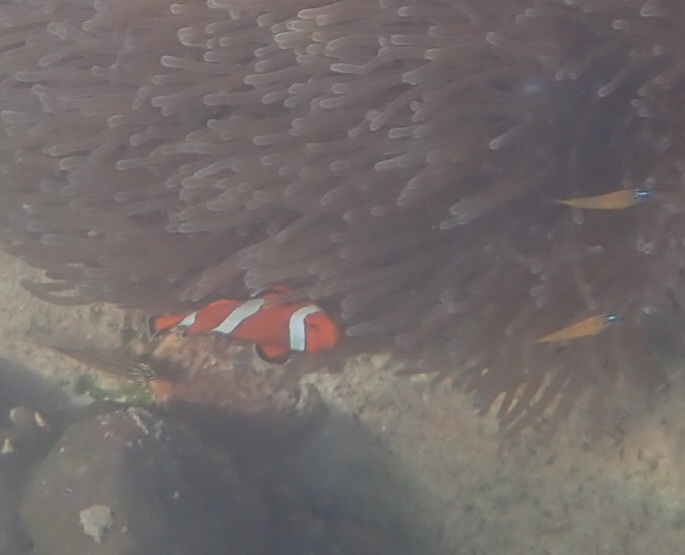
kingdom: Animalia
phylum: Chordata
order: Perciformes
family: Pomacentridae
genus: Amphiprion
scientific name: Amphiprion ocellaris
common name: Clown anemonefish
